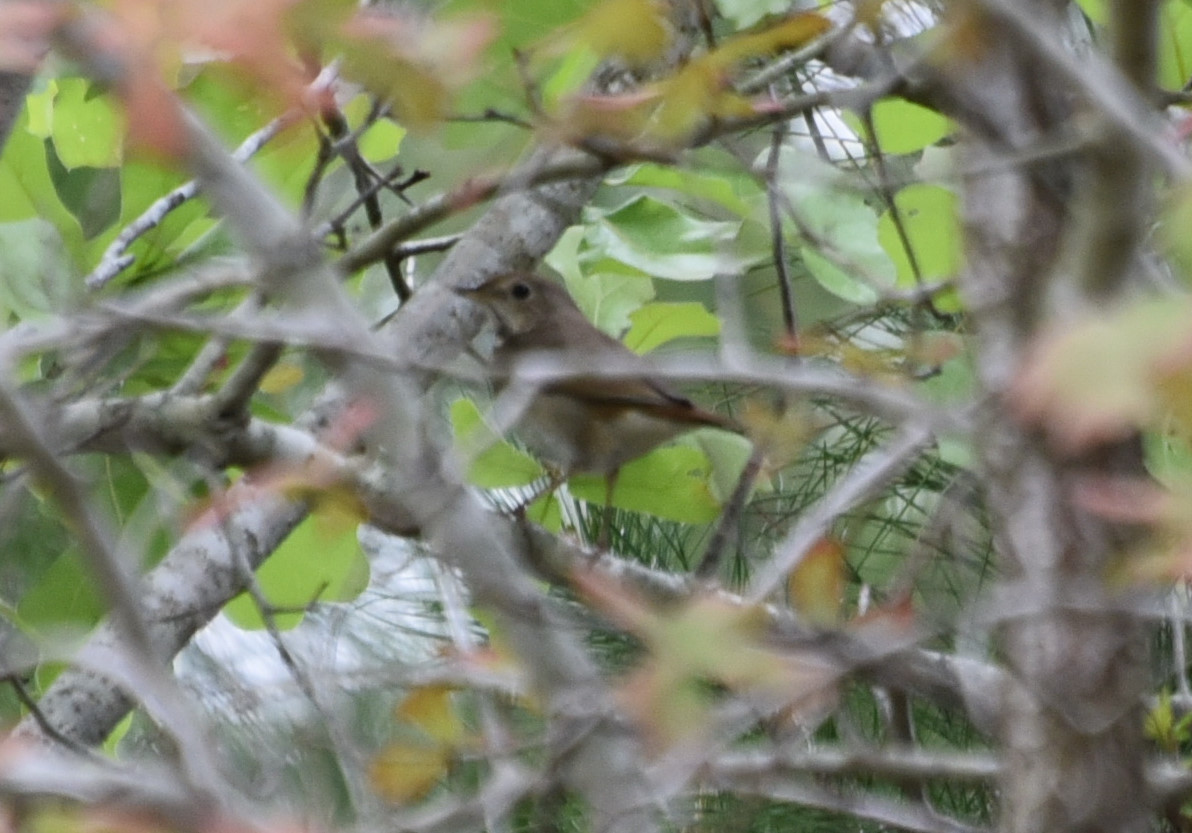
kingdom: Animalia
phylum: Chordata
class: Aves
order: Passeriformes
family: Turdidae
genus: Catharus
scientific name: Catharus guttatus
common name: Hermit thrush
